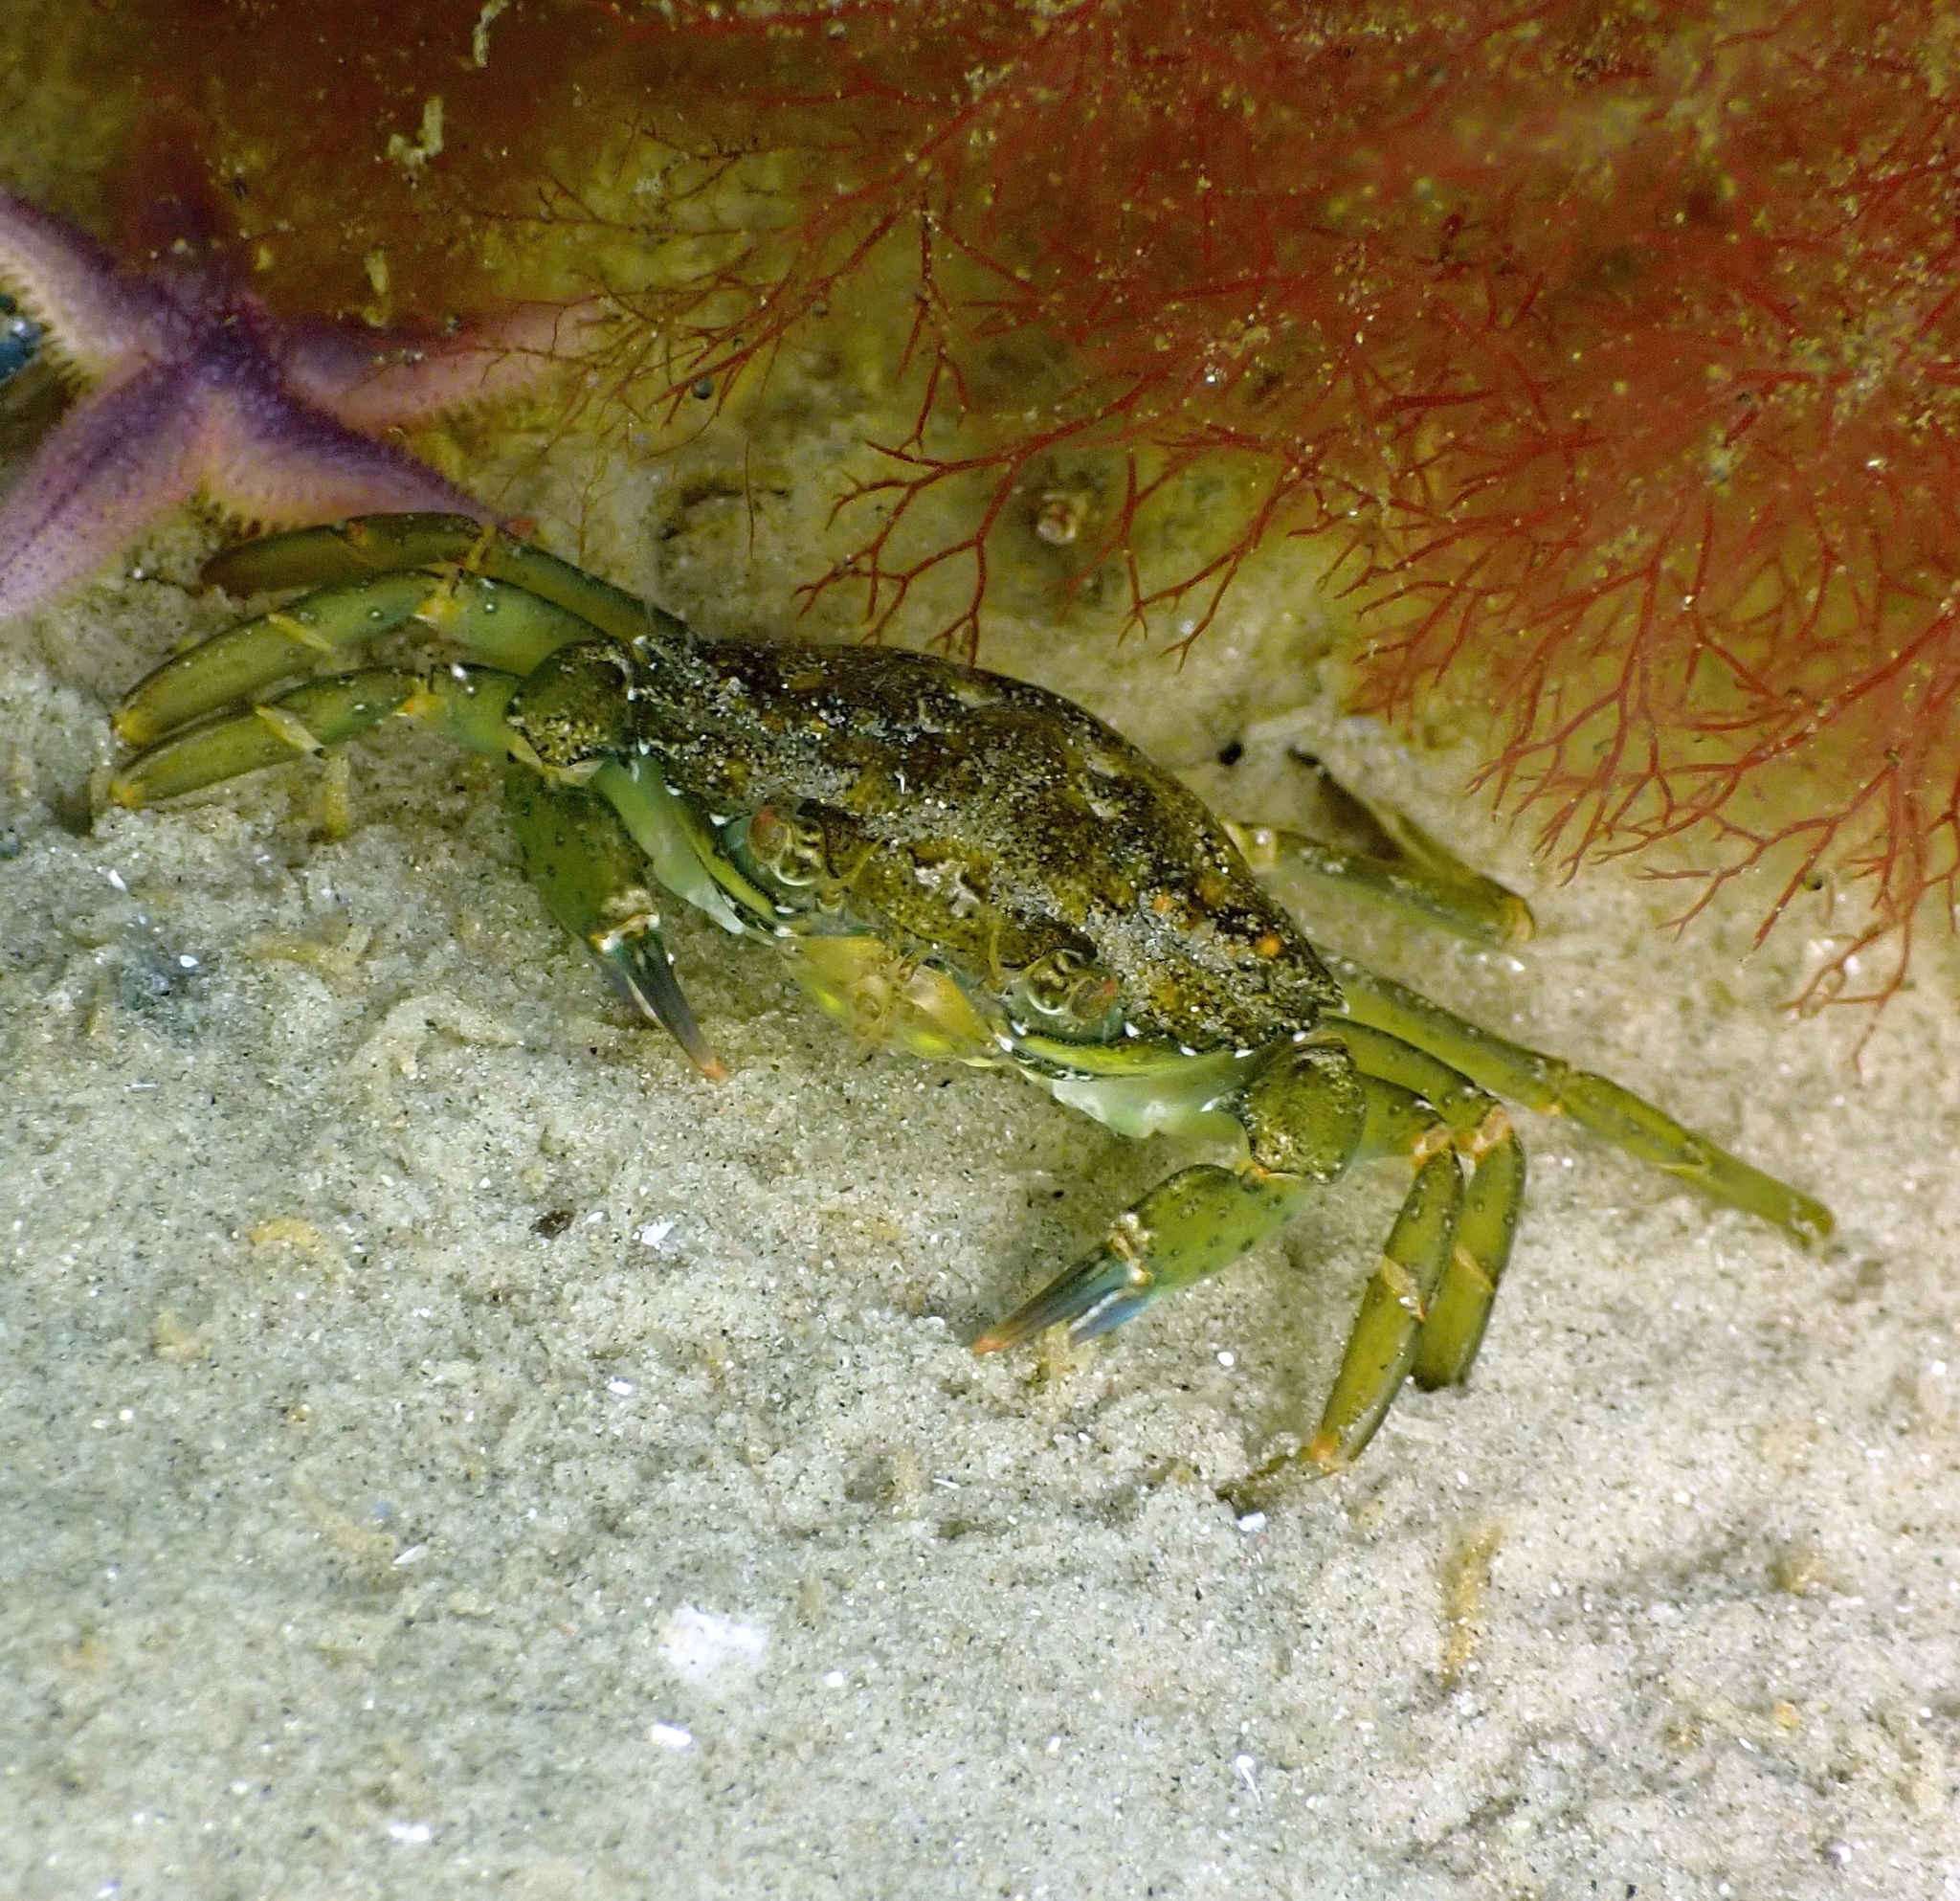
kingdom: Animalia
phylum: Arthropoda
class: Malacostraca
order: Decapoda
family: Carcinidae
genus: Carcinus
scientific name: Carcinus maenas
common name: European green crab
